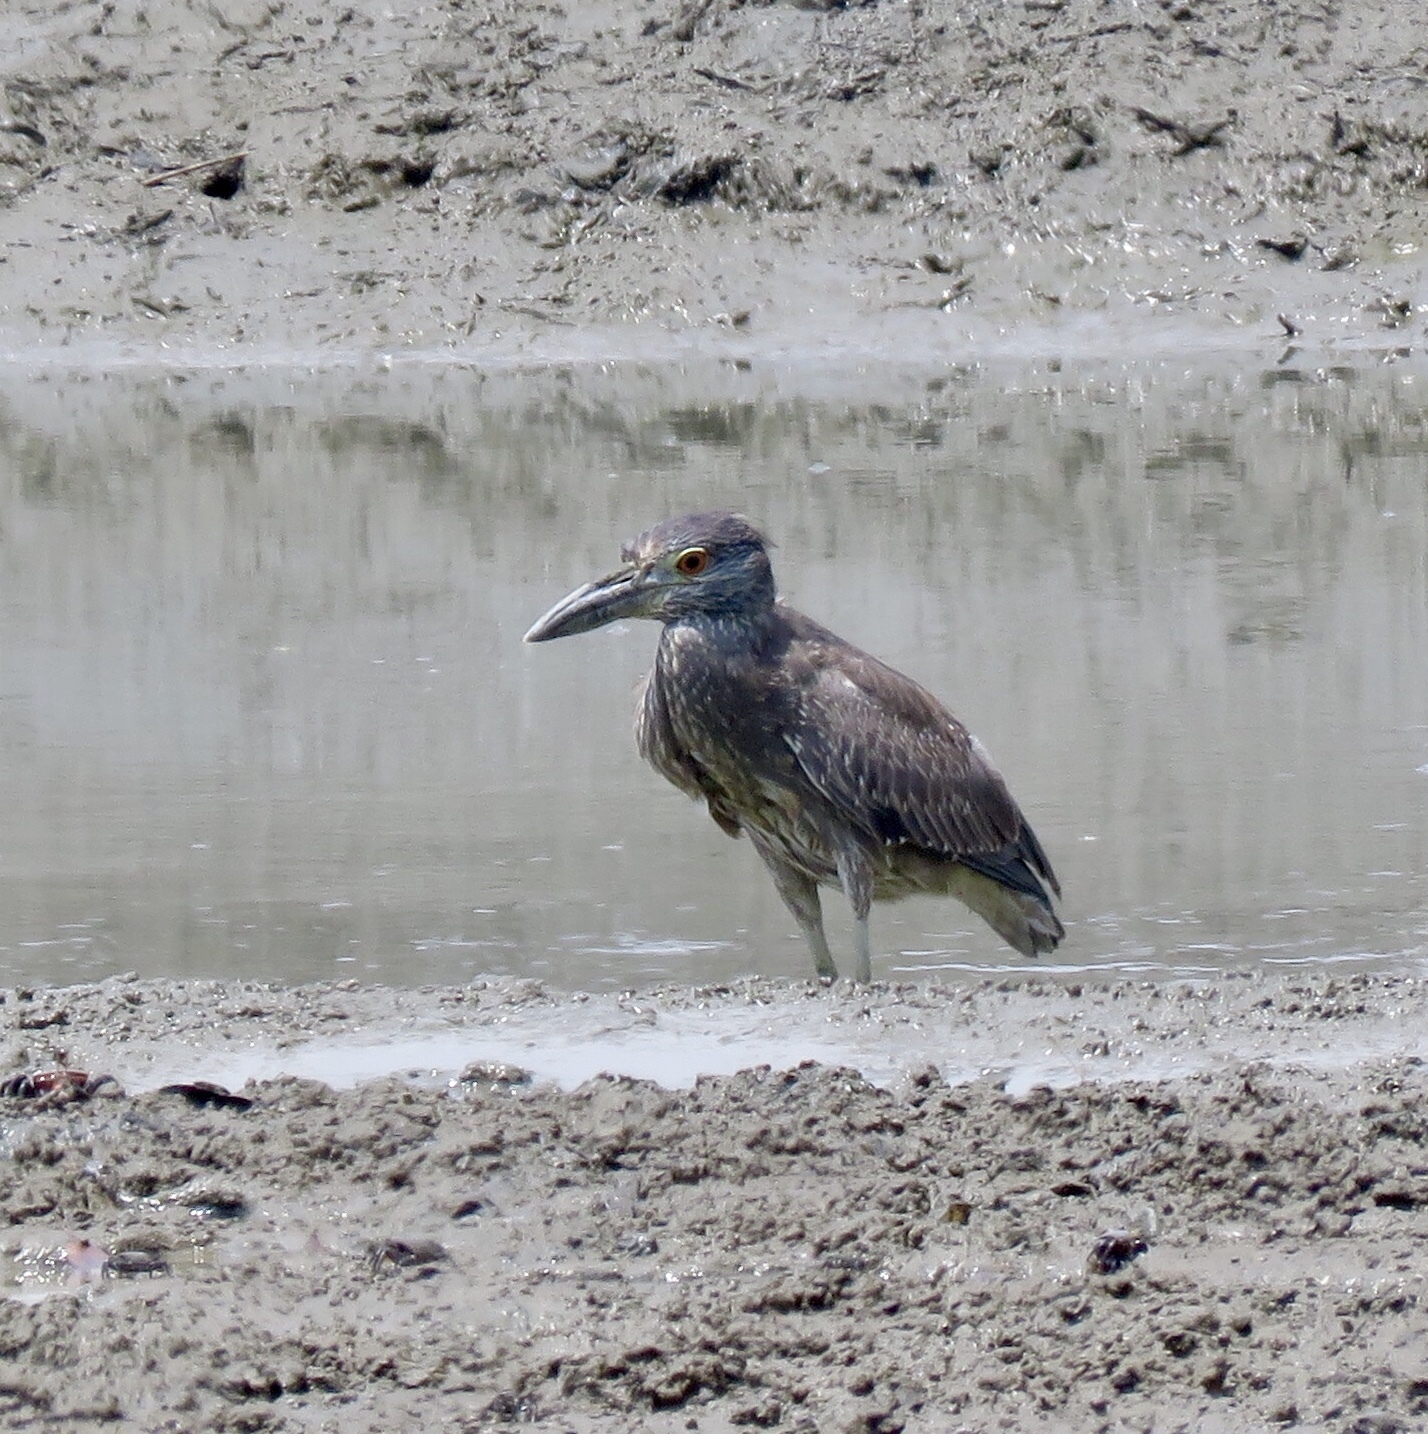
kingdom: Animalia
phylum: Chordata
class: Aves
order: Pelecaniformes
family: Ardeidae
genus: Nyctanassa
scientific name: Nyctanassa violacea
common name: Yellow-crowned night heron
